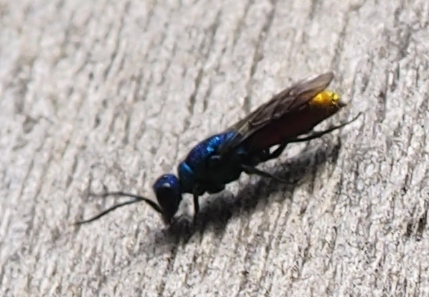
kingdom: Animalia
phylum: Arthropoda
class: Insecta
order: Hymenoptera
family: Chrysididae
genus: Chrysis
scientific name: Chrysis terminata
